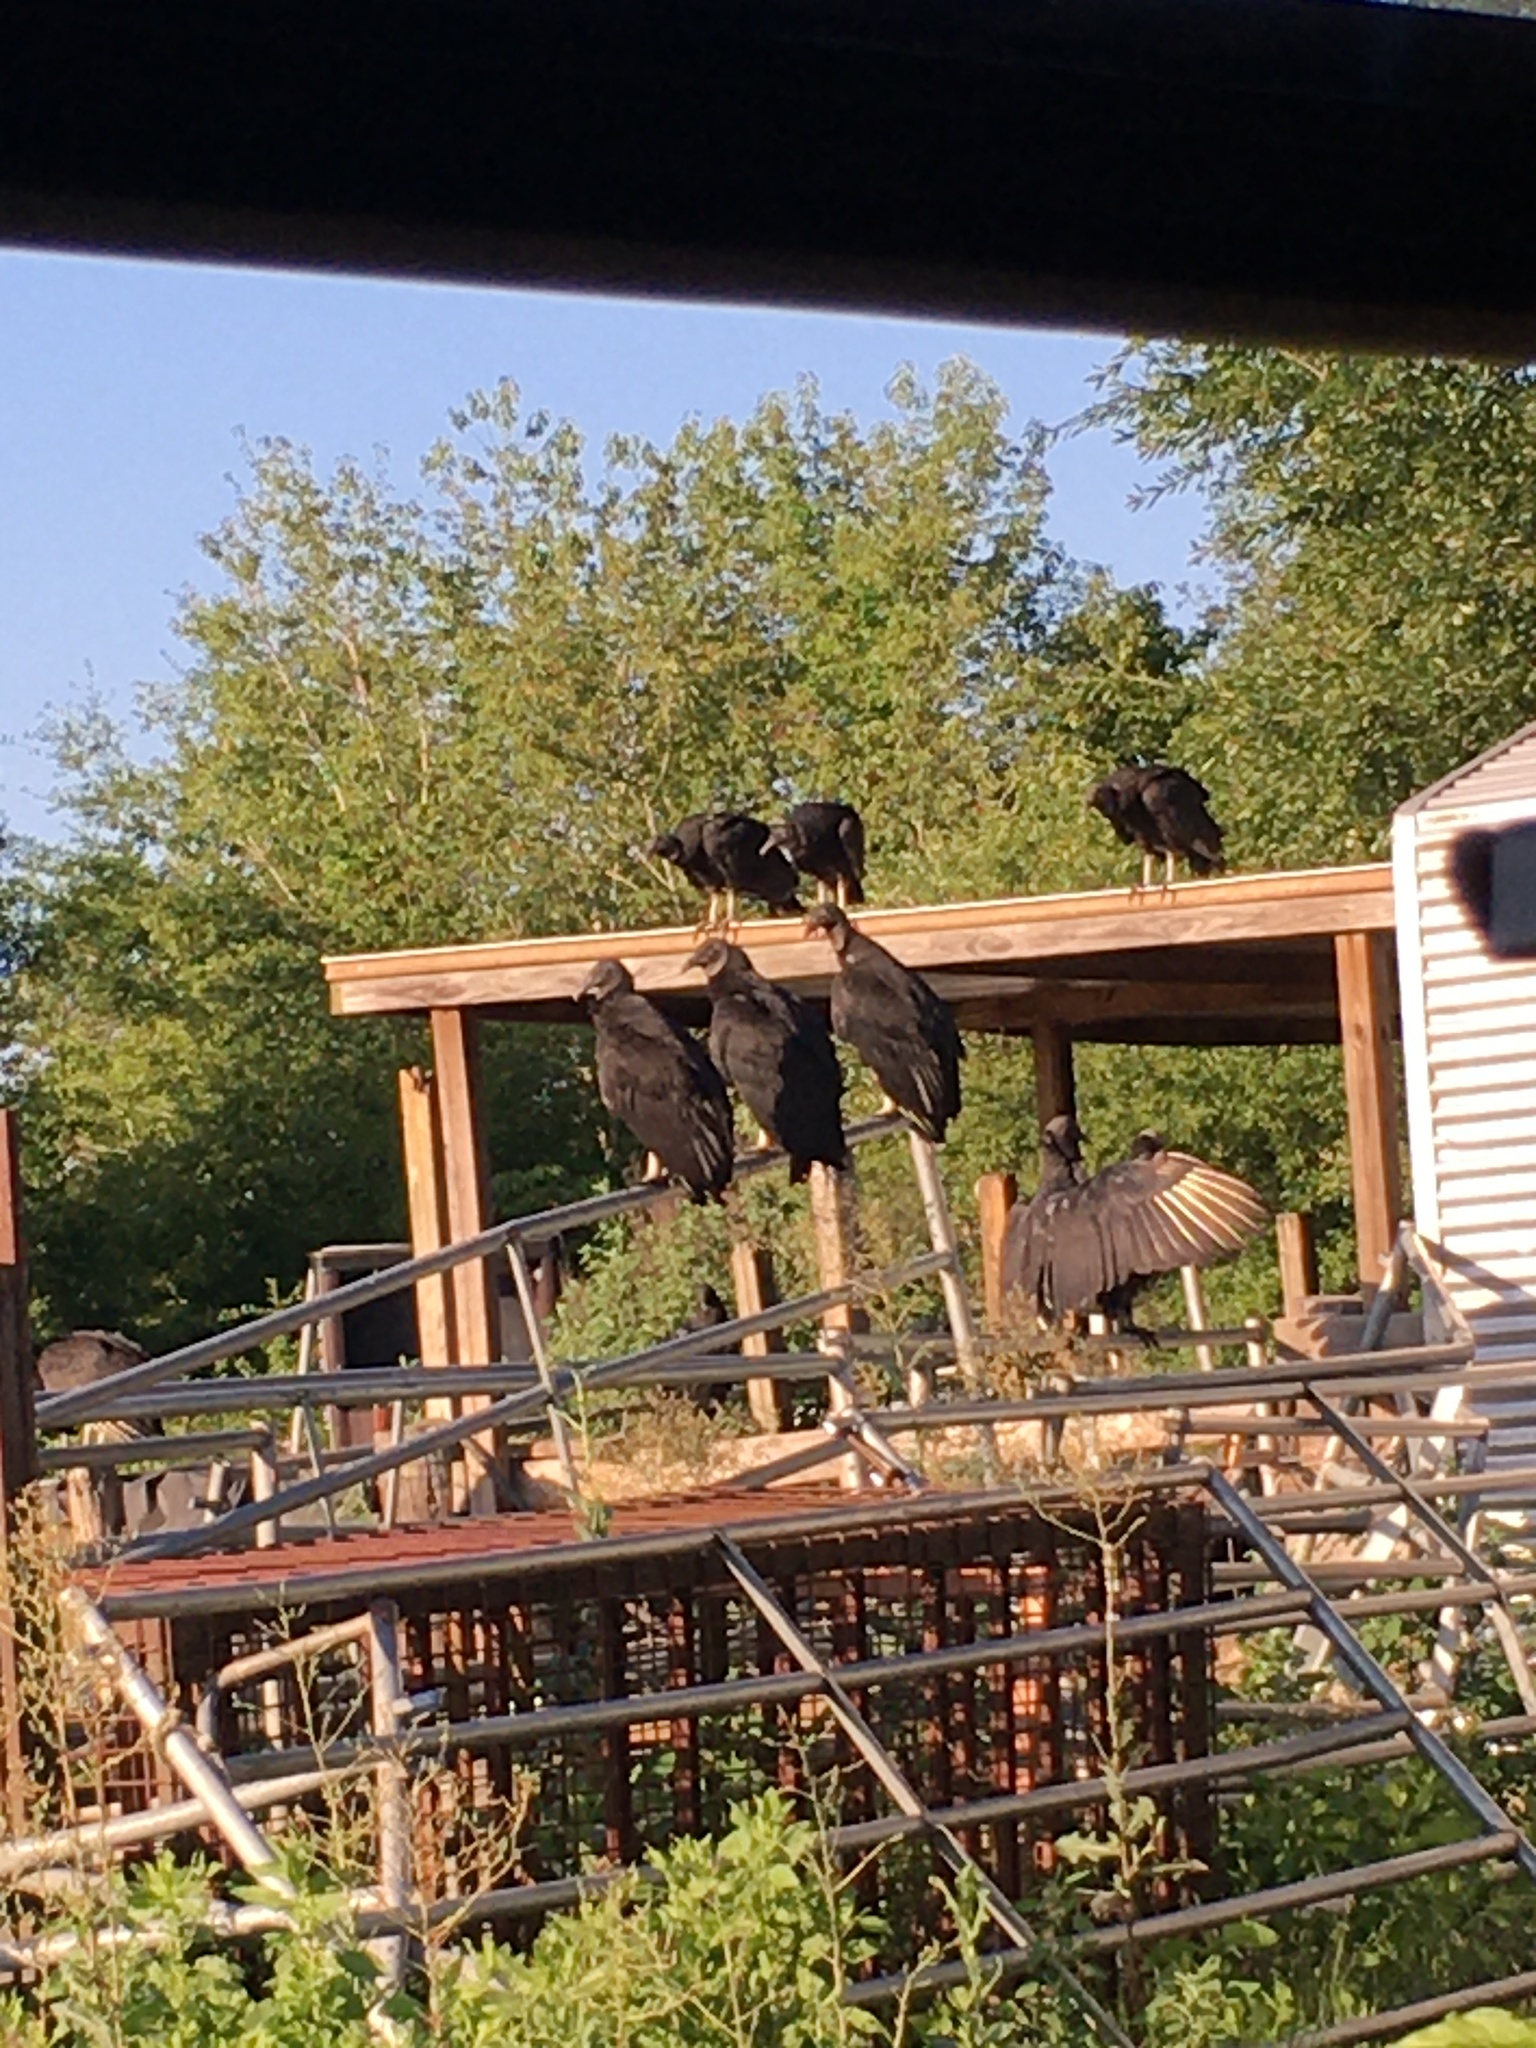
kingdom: Animalia
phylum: Chordata
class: Aves
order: Accipitriformes
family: Cathartidae
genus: Coragyps
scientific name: Coragyps atratus
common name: Black vulture
